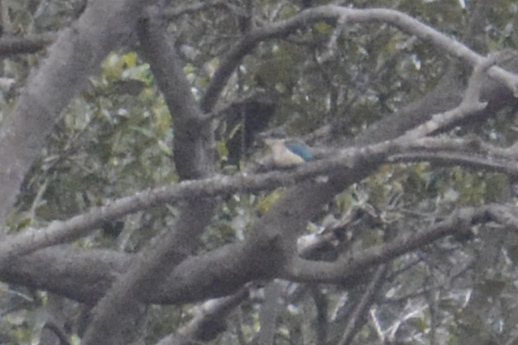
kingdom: Animalia
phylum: Chordata
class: Aves
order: Coraciiformes
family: Alcedinidae
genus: Todiramphus
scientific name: Todiramphus sanctus
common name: Sacred kingfisher
